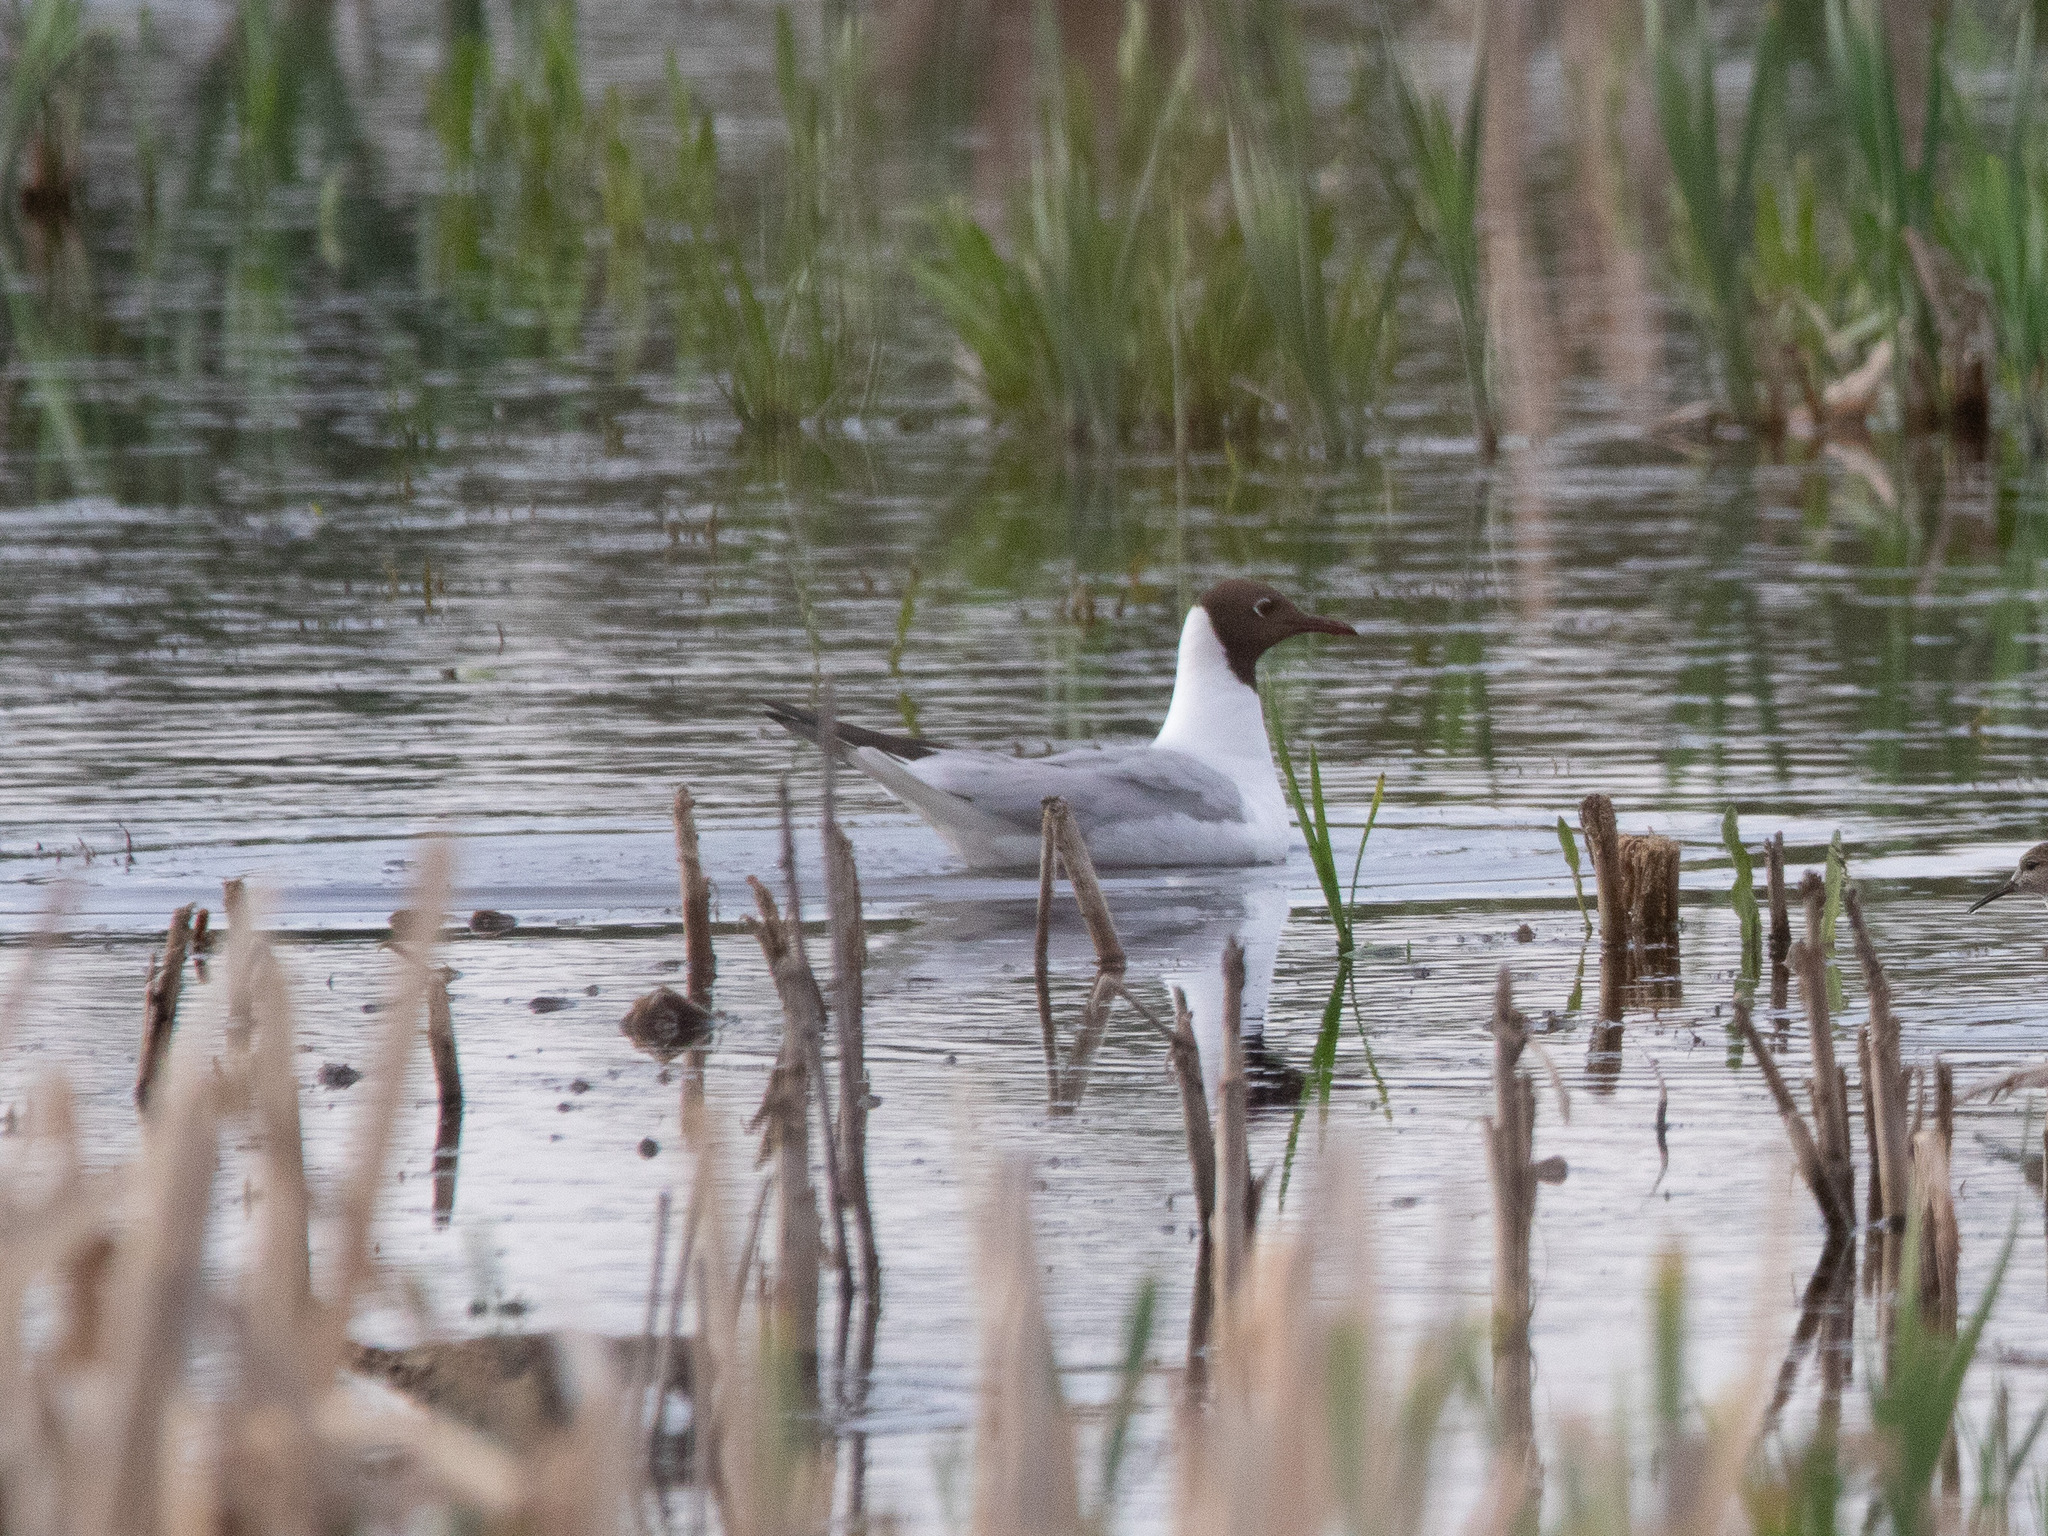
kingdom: Animalia
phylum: Chordata
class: Aves
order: Charadriiformes
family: Laridae
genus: Chroicocephalus
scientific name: Chroicocephalus ridibundus
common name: Black-headed gull
